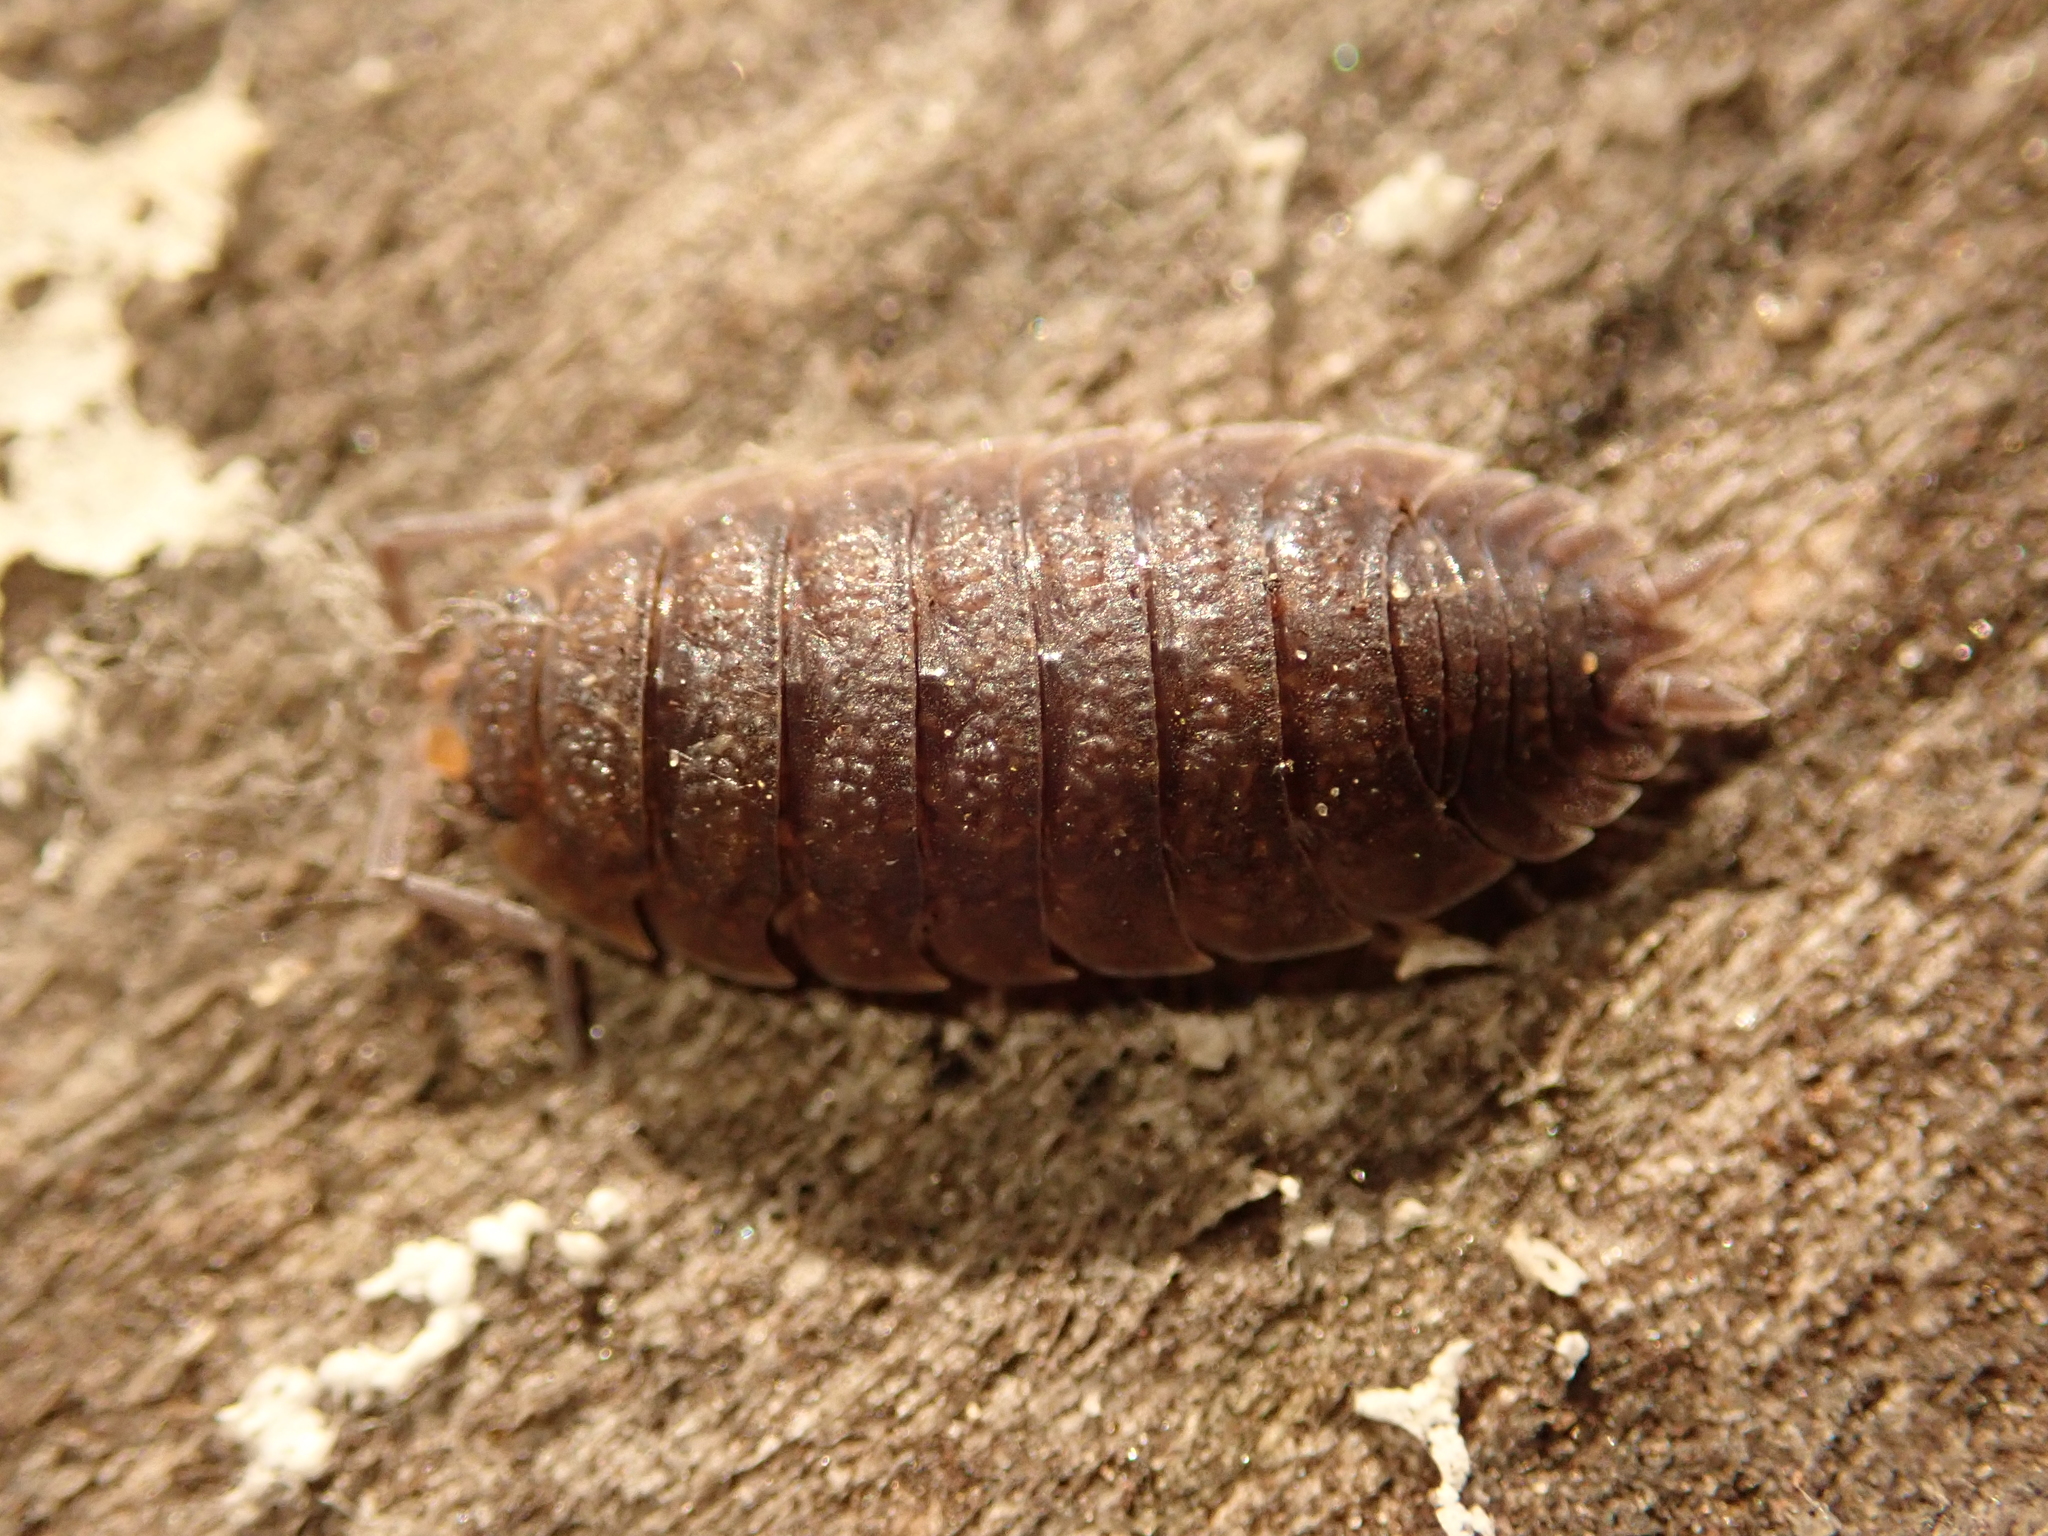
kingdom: Animalia
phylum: Arthropoda
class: Malacostraca
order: Isopoda
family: Porcellionidae
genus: Porcellio
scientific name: Porcellio scaber
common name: Common rough woodlouse
